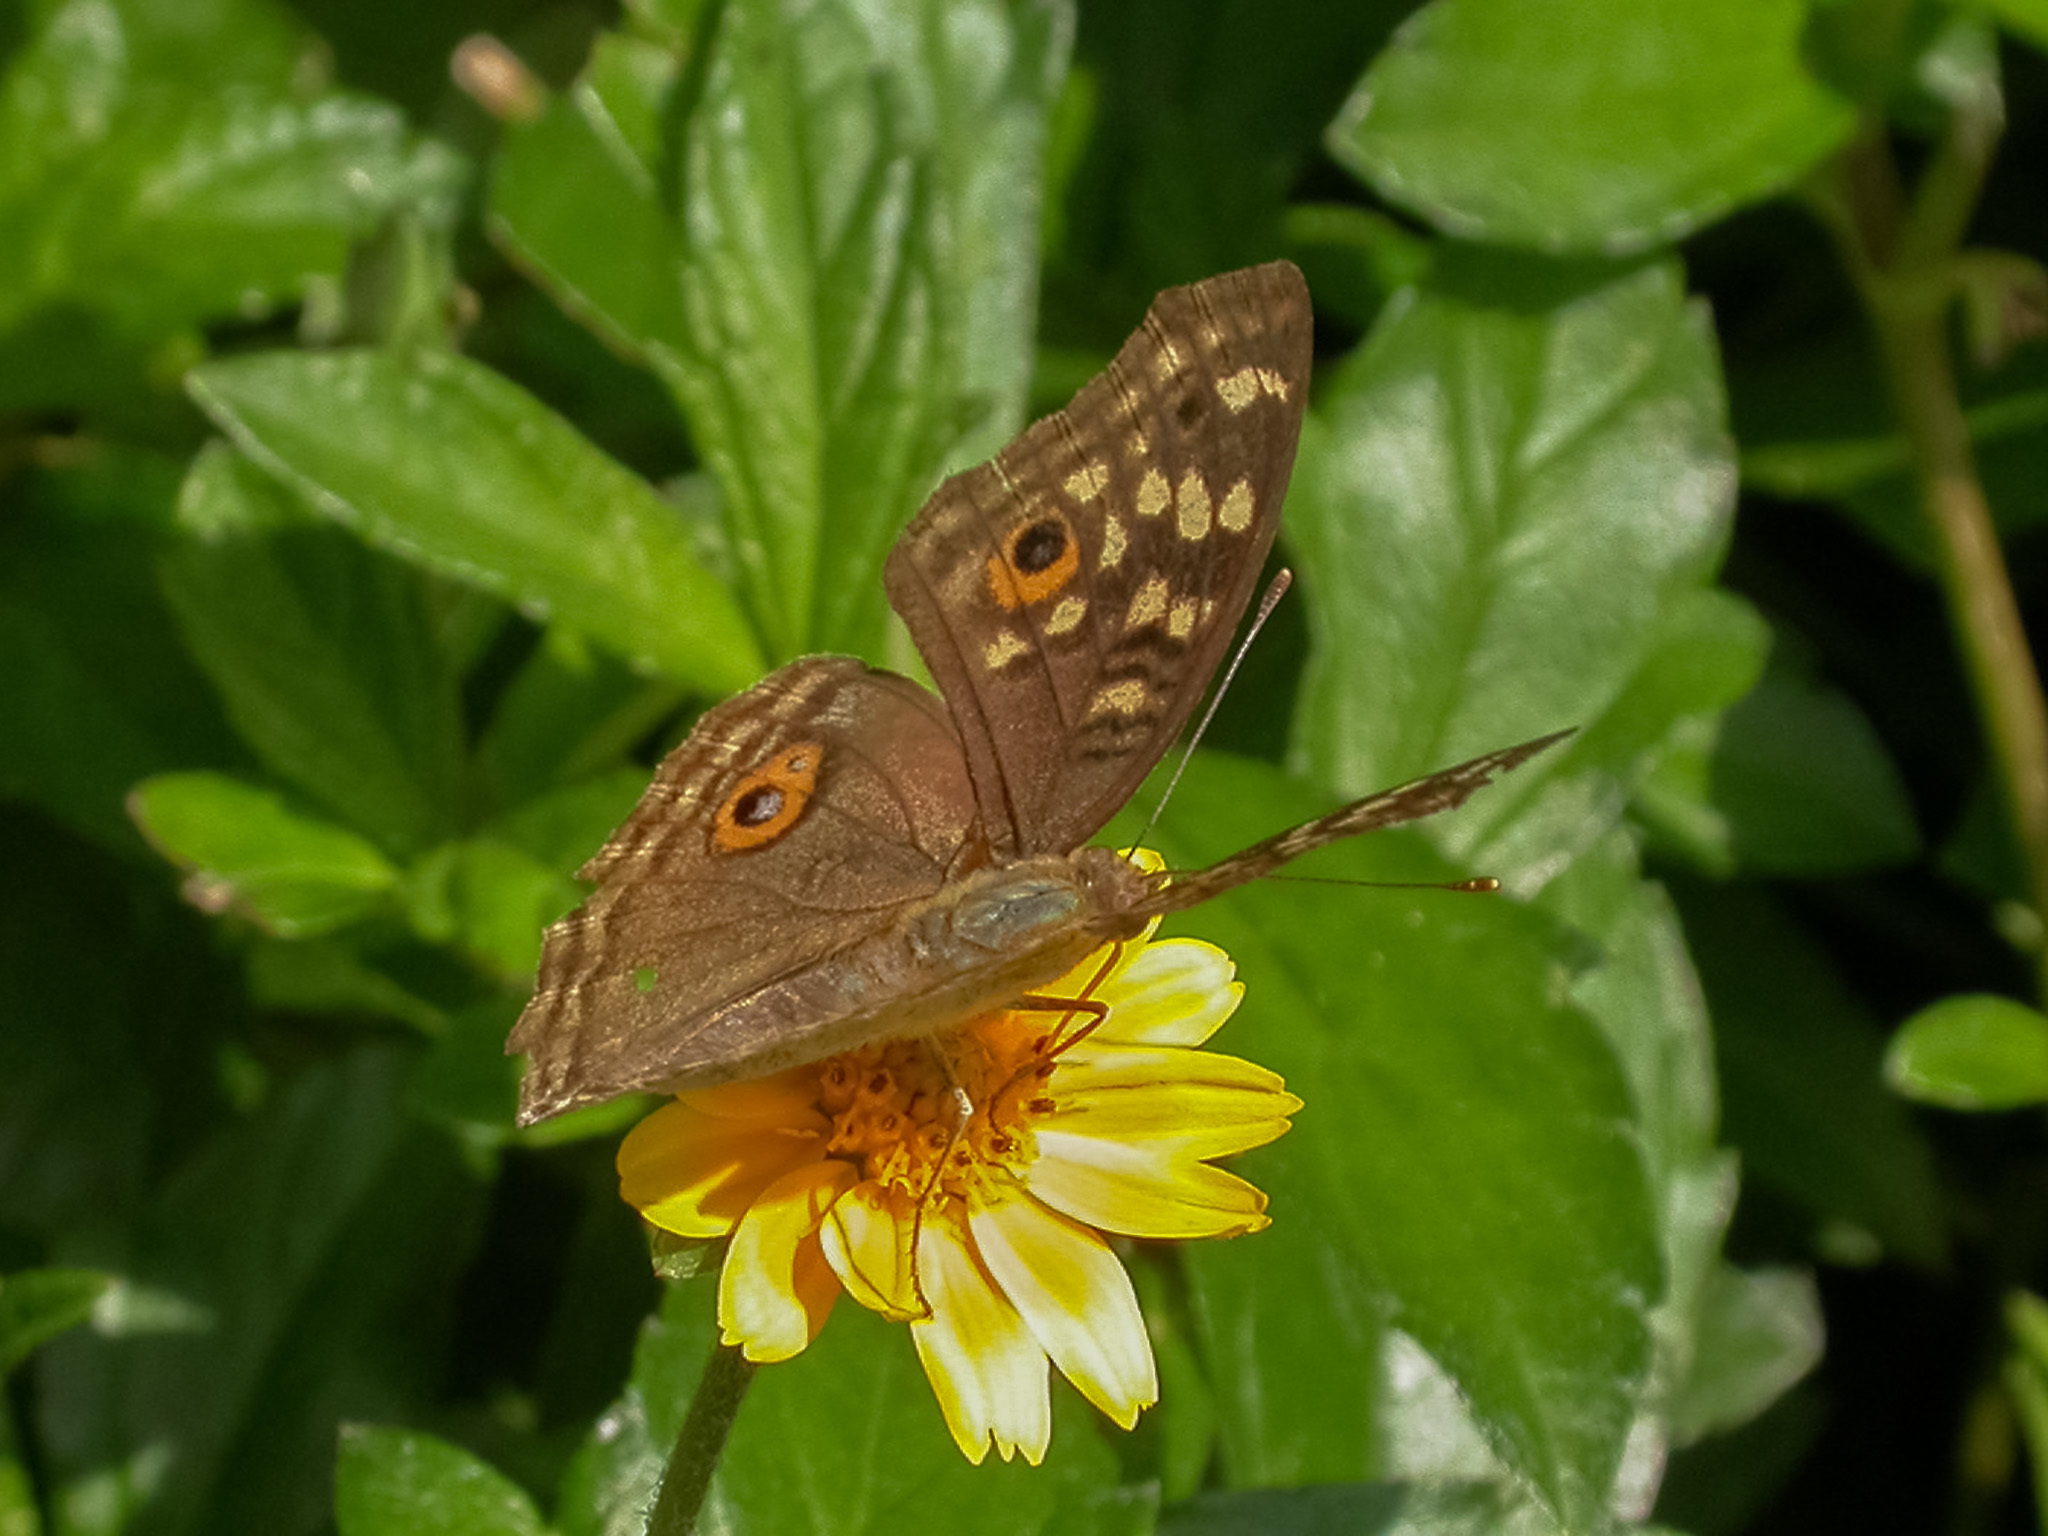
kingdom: Animalia
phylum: Arthropoda
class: Insecta
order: Lepidoptera
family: Nymphalidae
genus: Junonia
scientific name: Junonia lemonias
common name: Lemon pansy
